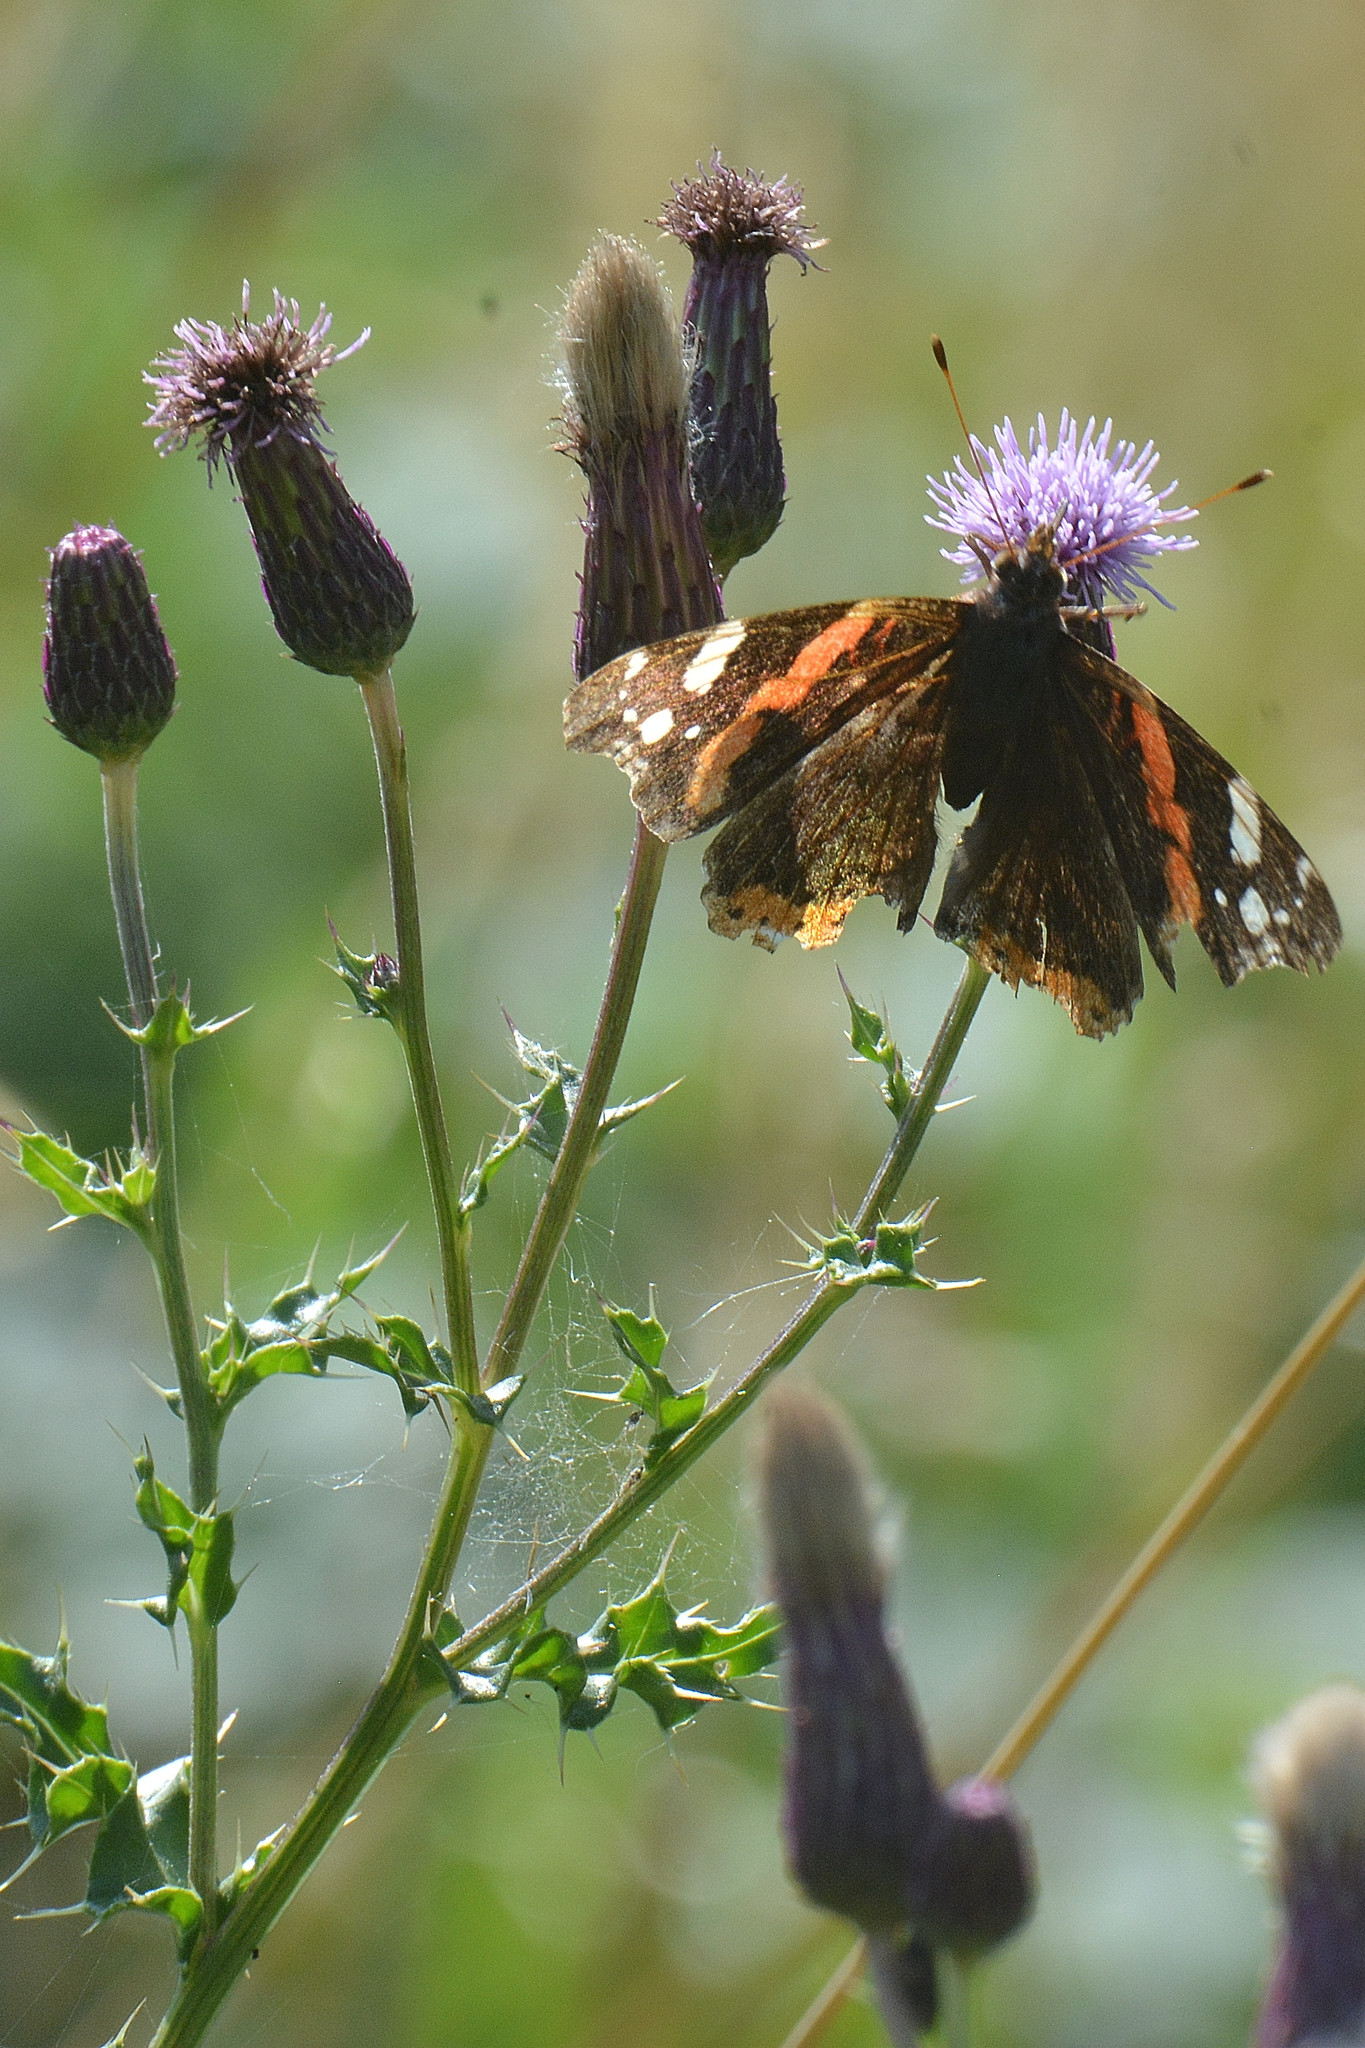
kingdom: Animalia
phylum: Arthropoda
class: Insecta
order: Lepidoptera
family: Nymphalidae
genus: Vanessa
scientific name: Vanessa atalanta
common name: Red admiral
